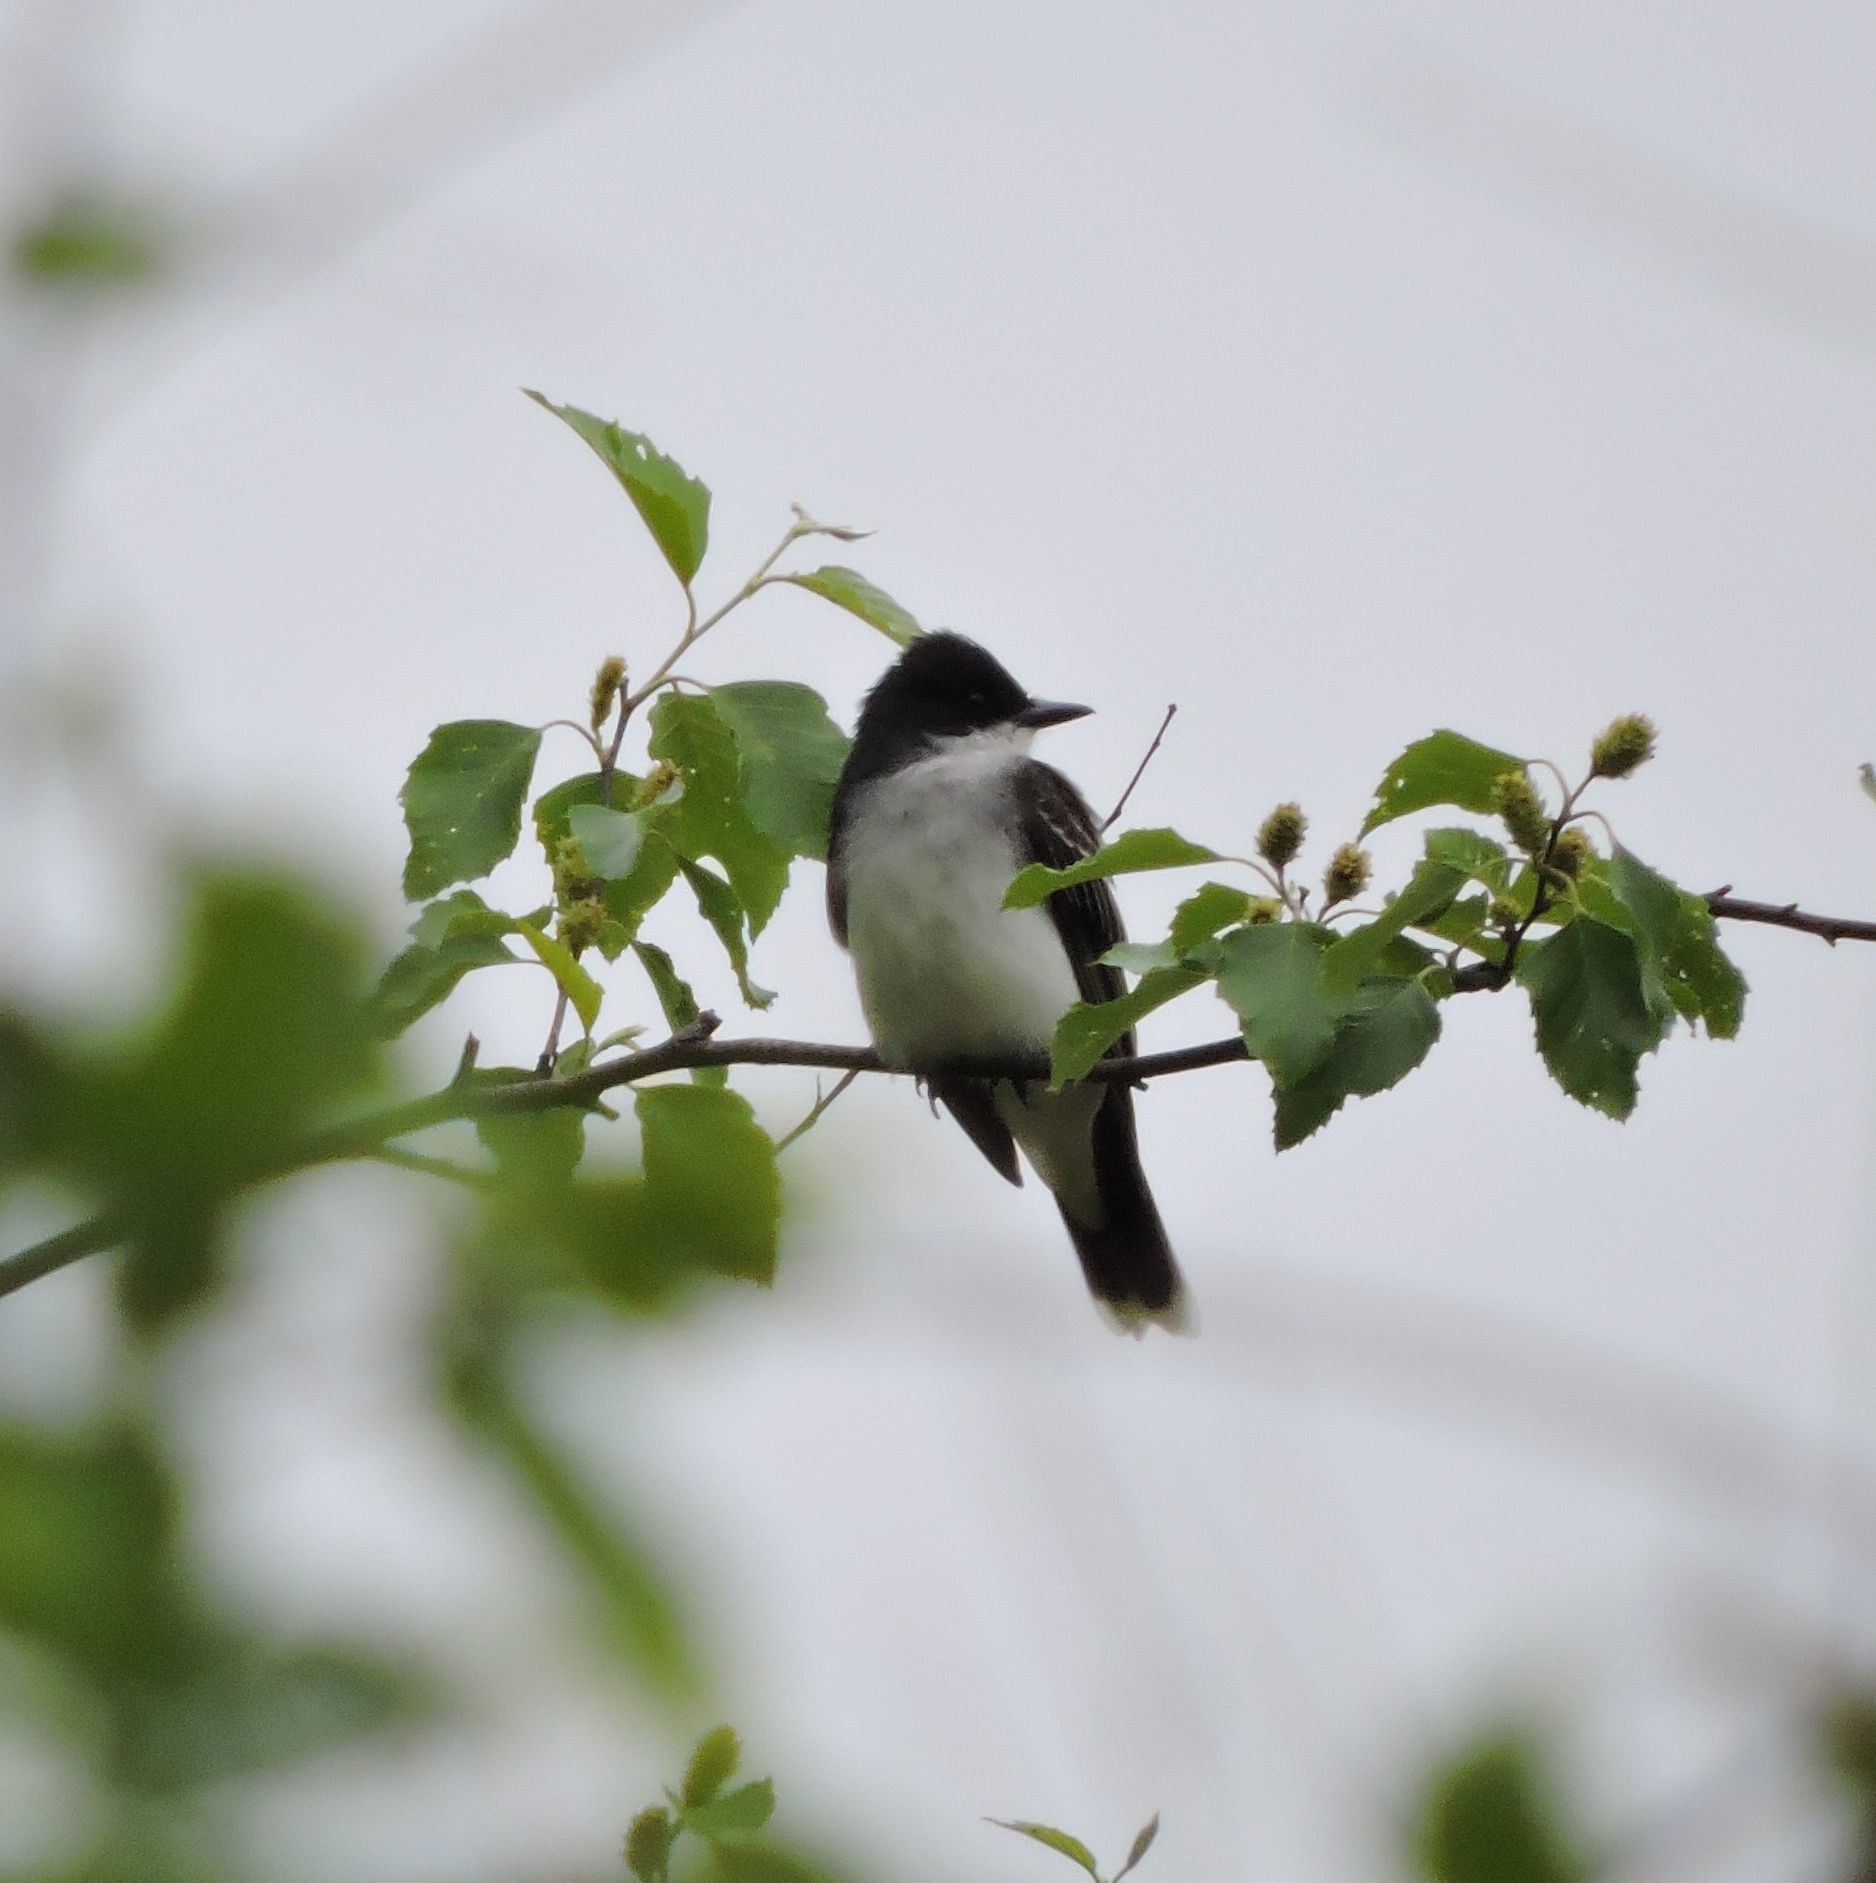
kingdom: Animalia
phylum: Chordata
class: Aves
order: Passeriformes
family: Tyrannidae
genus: Tyrannus
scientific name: Tyrannus tyrannus
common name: Eastern kingbird
